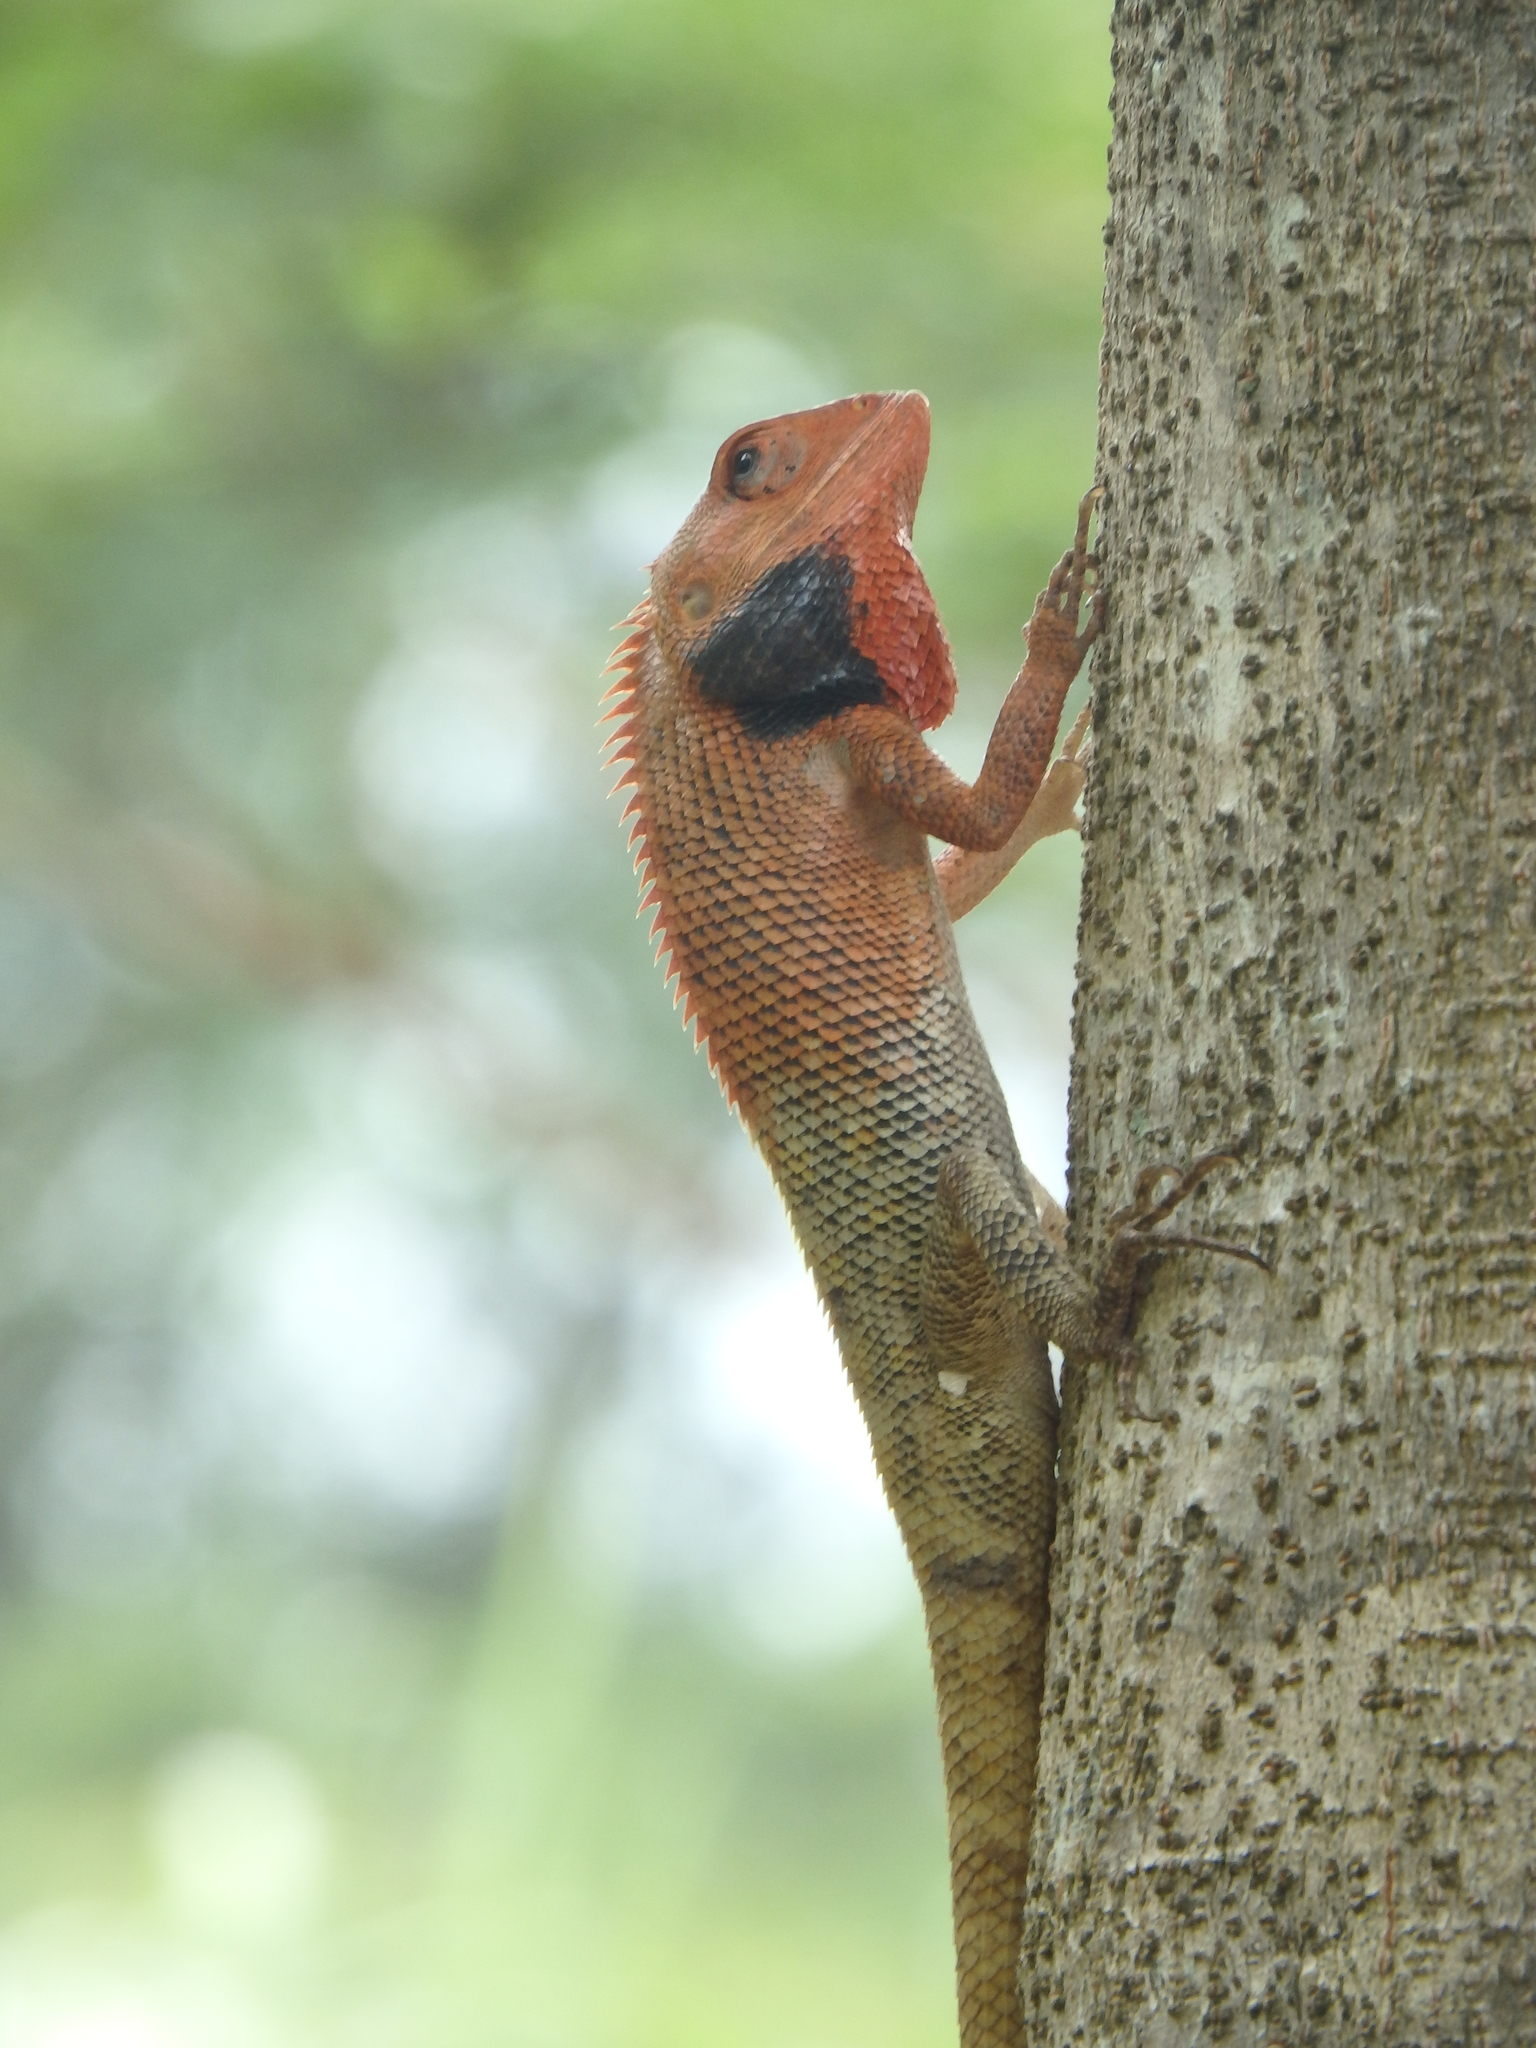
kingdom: Animalia
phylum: Chordata
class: Squamata
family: Agamidae
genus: Calotes
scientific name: Calotes versicolor
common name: Oriental garden lizard
